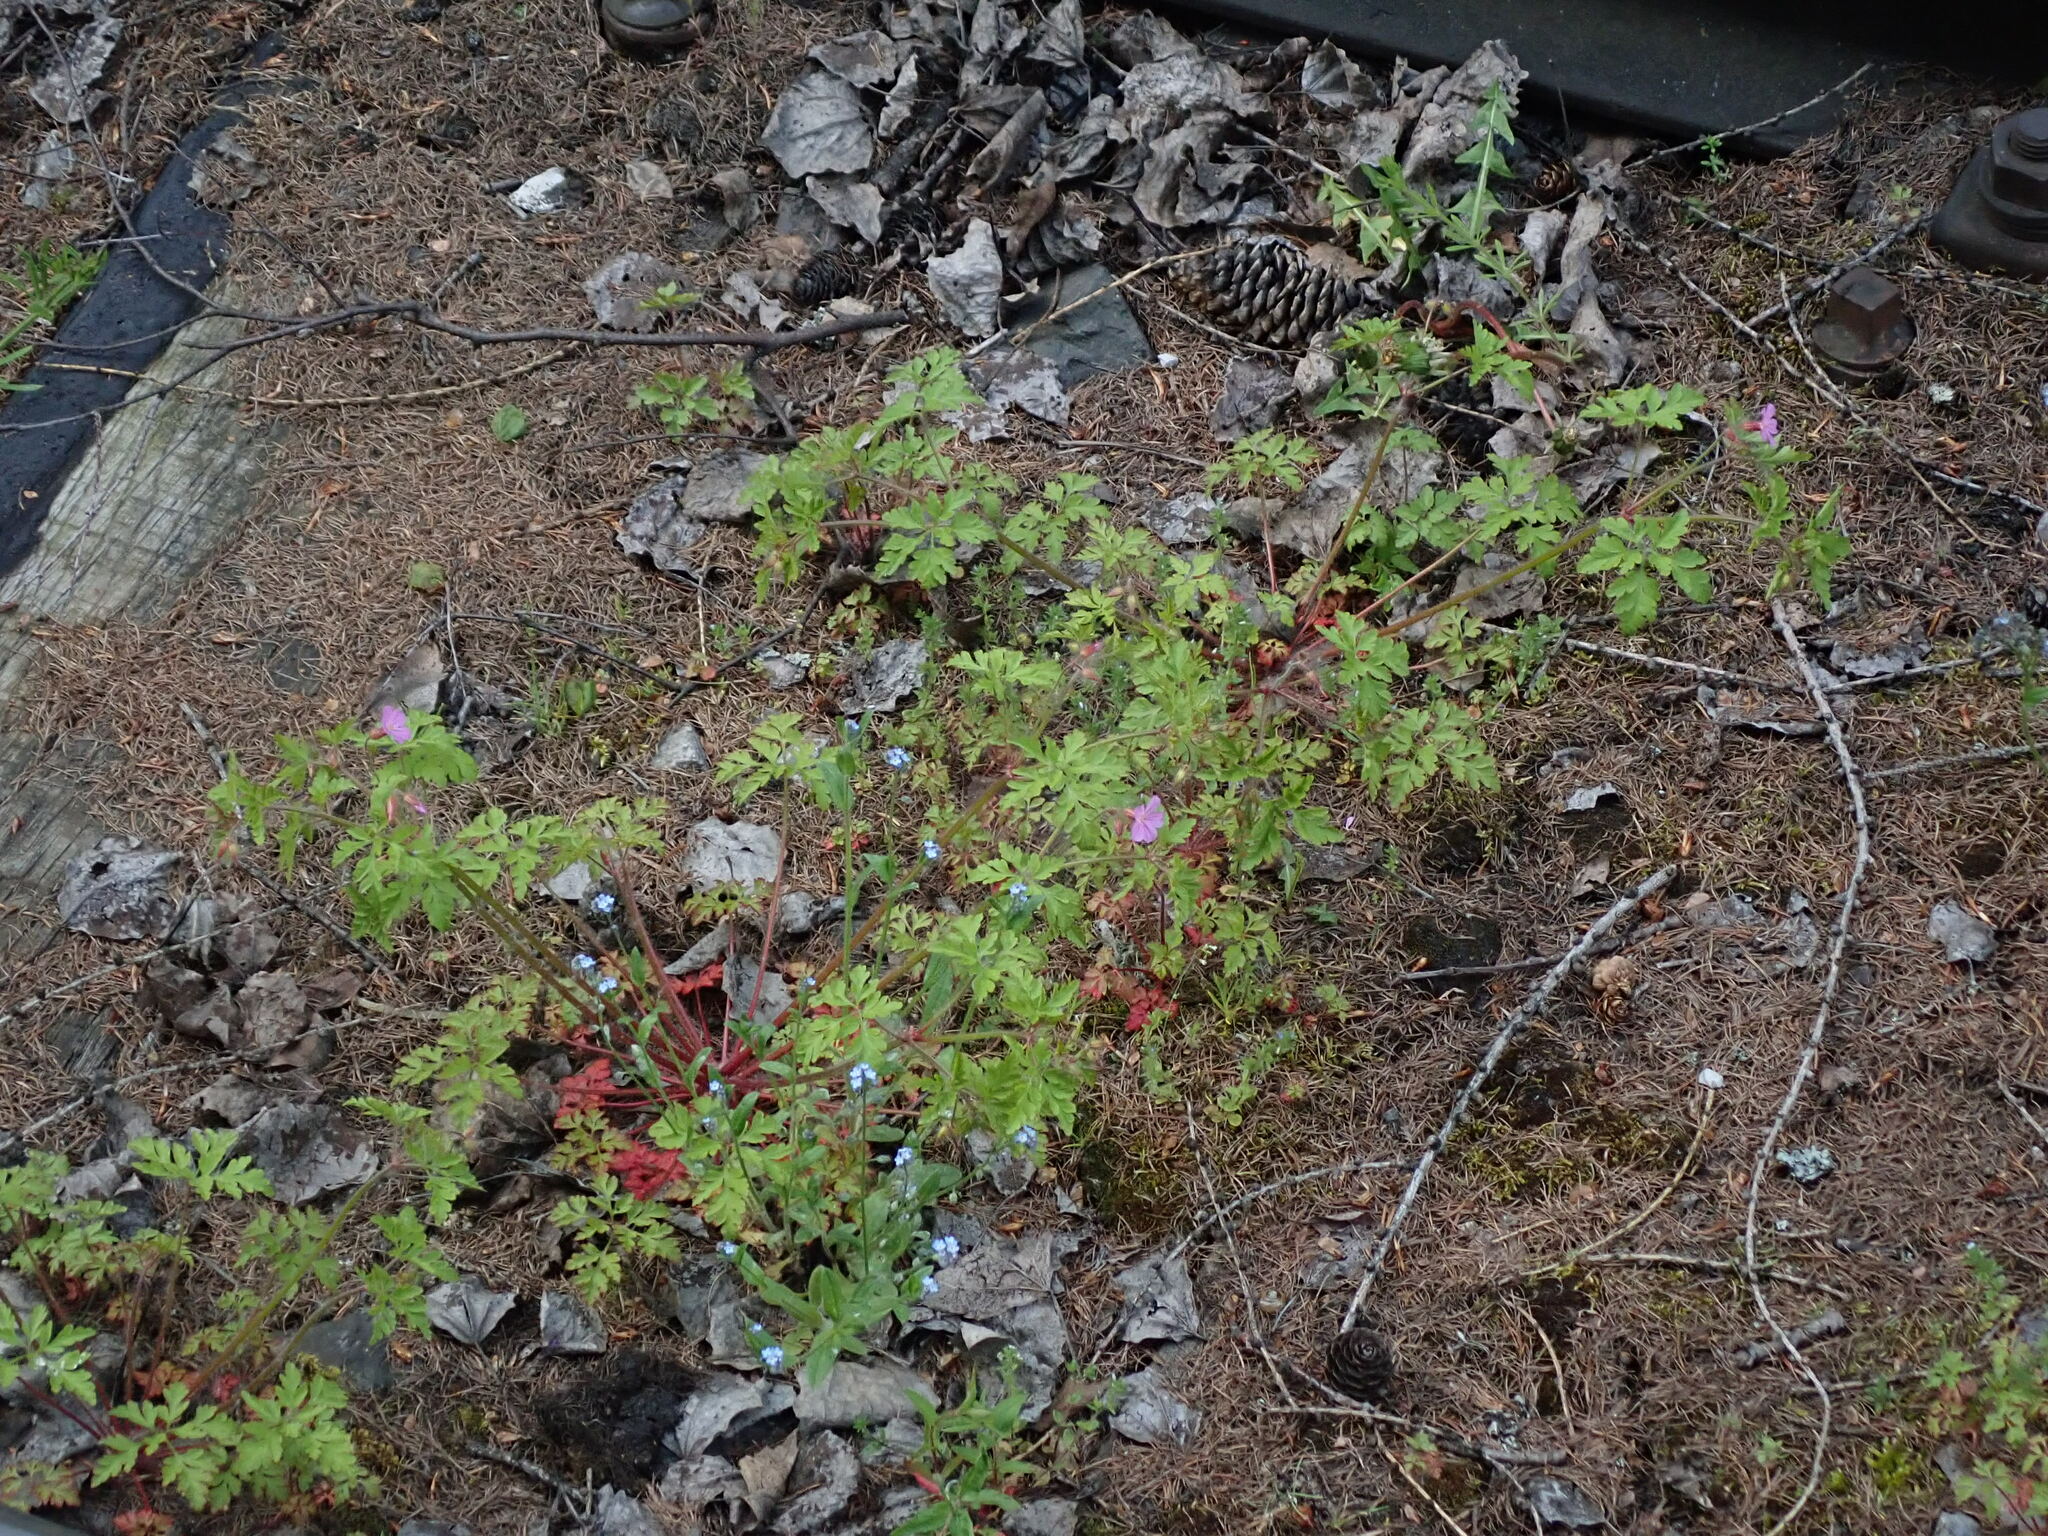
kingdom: Plantae
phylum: Tracheophyta
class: Magnoliopsida
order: Geraniales
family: Geraniaceae
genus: Geranium
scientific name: Geranium robertianum
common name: Herb-robert
